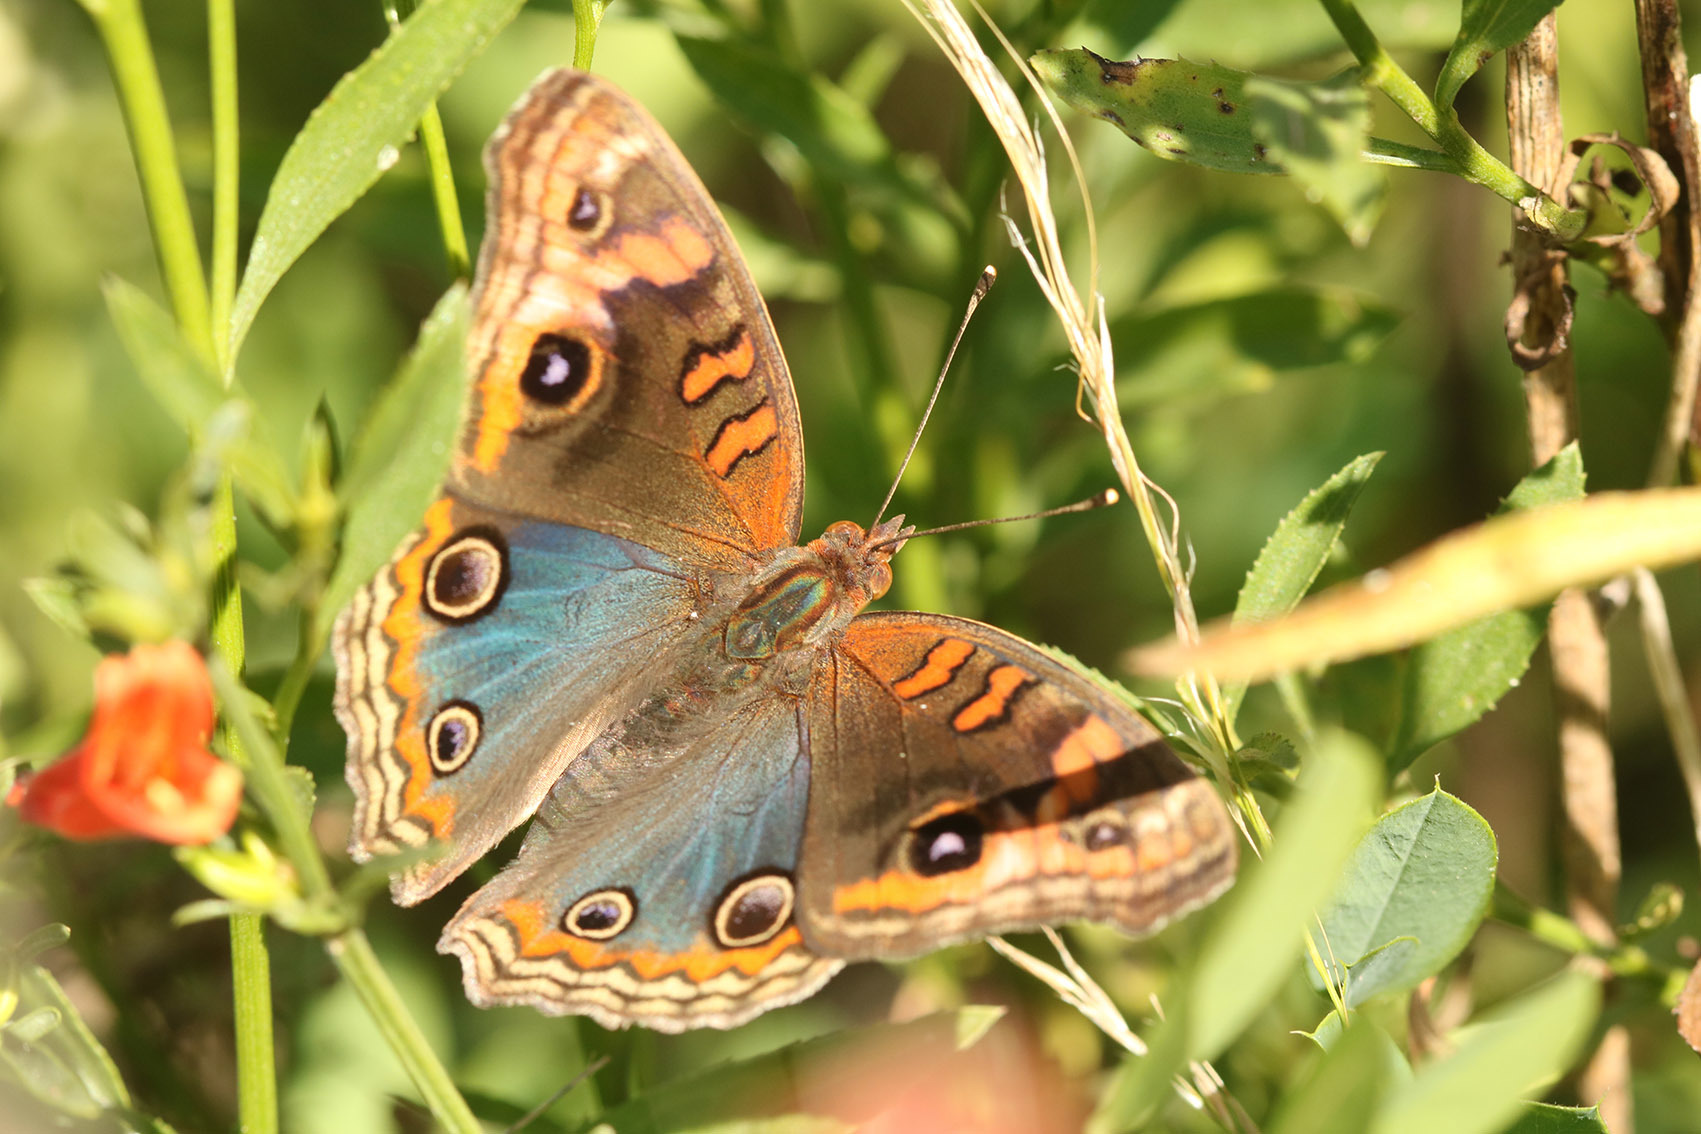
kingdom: Animalia
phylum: Arthropoda
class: Insecta
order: Lepidoptera
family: Nymphalidae
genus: Junonia
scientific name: Junonia lavinia
